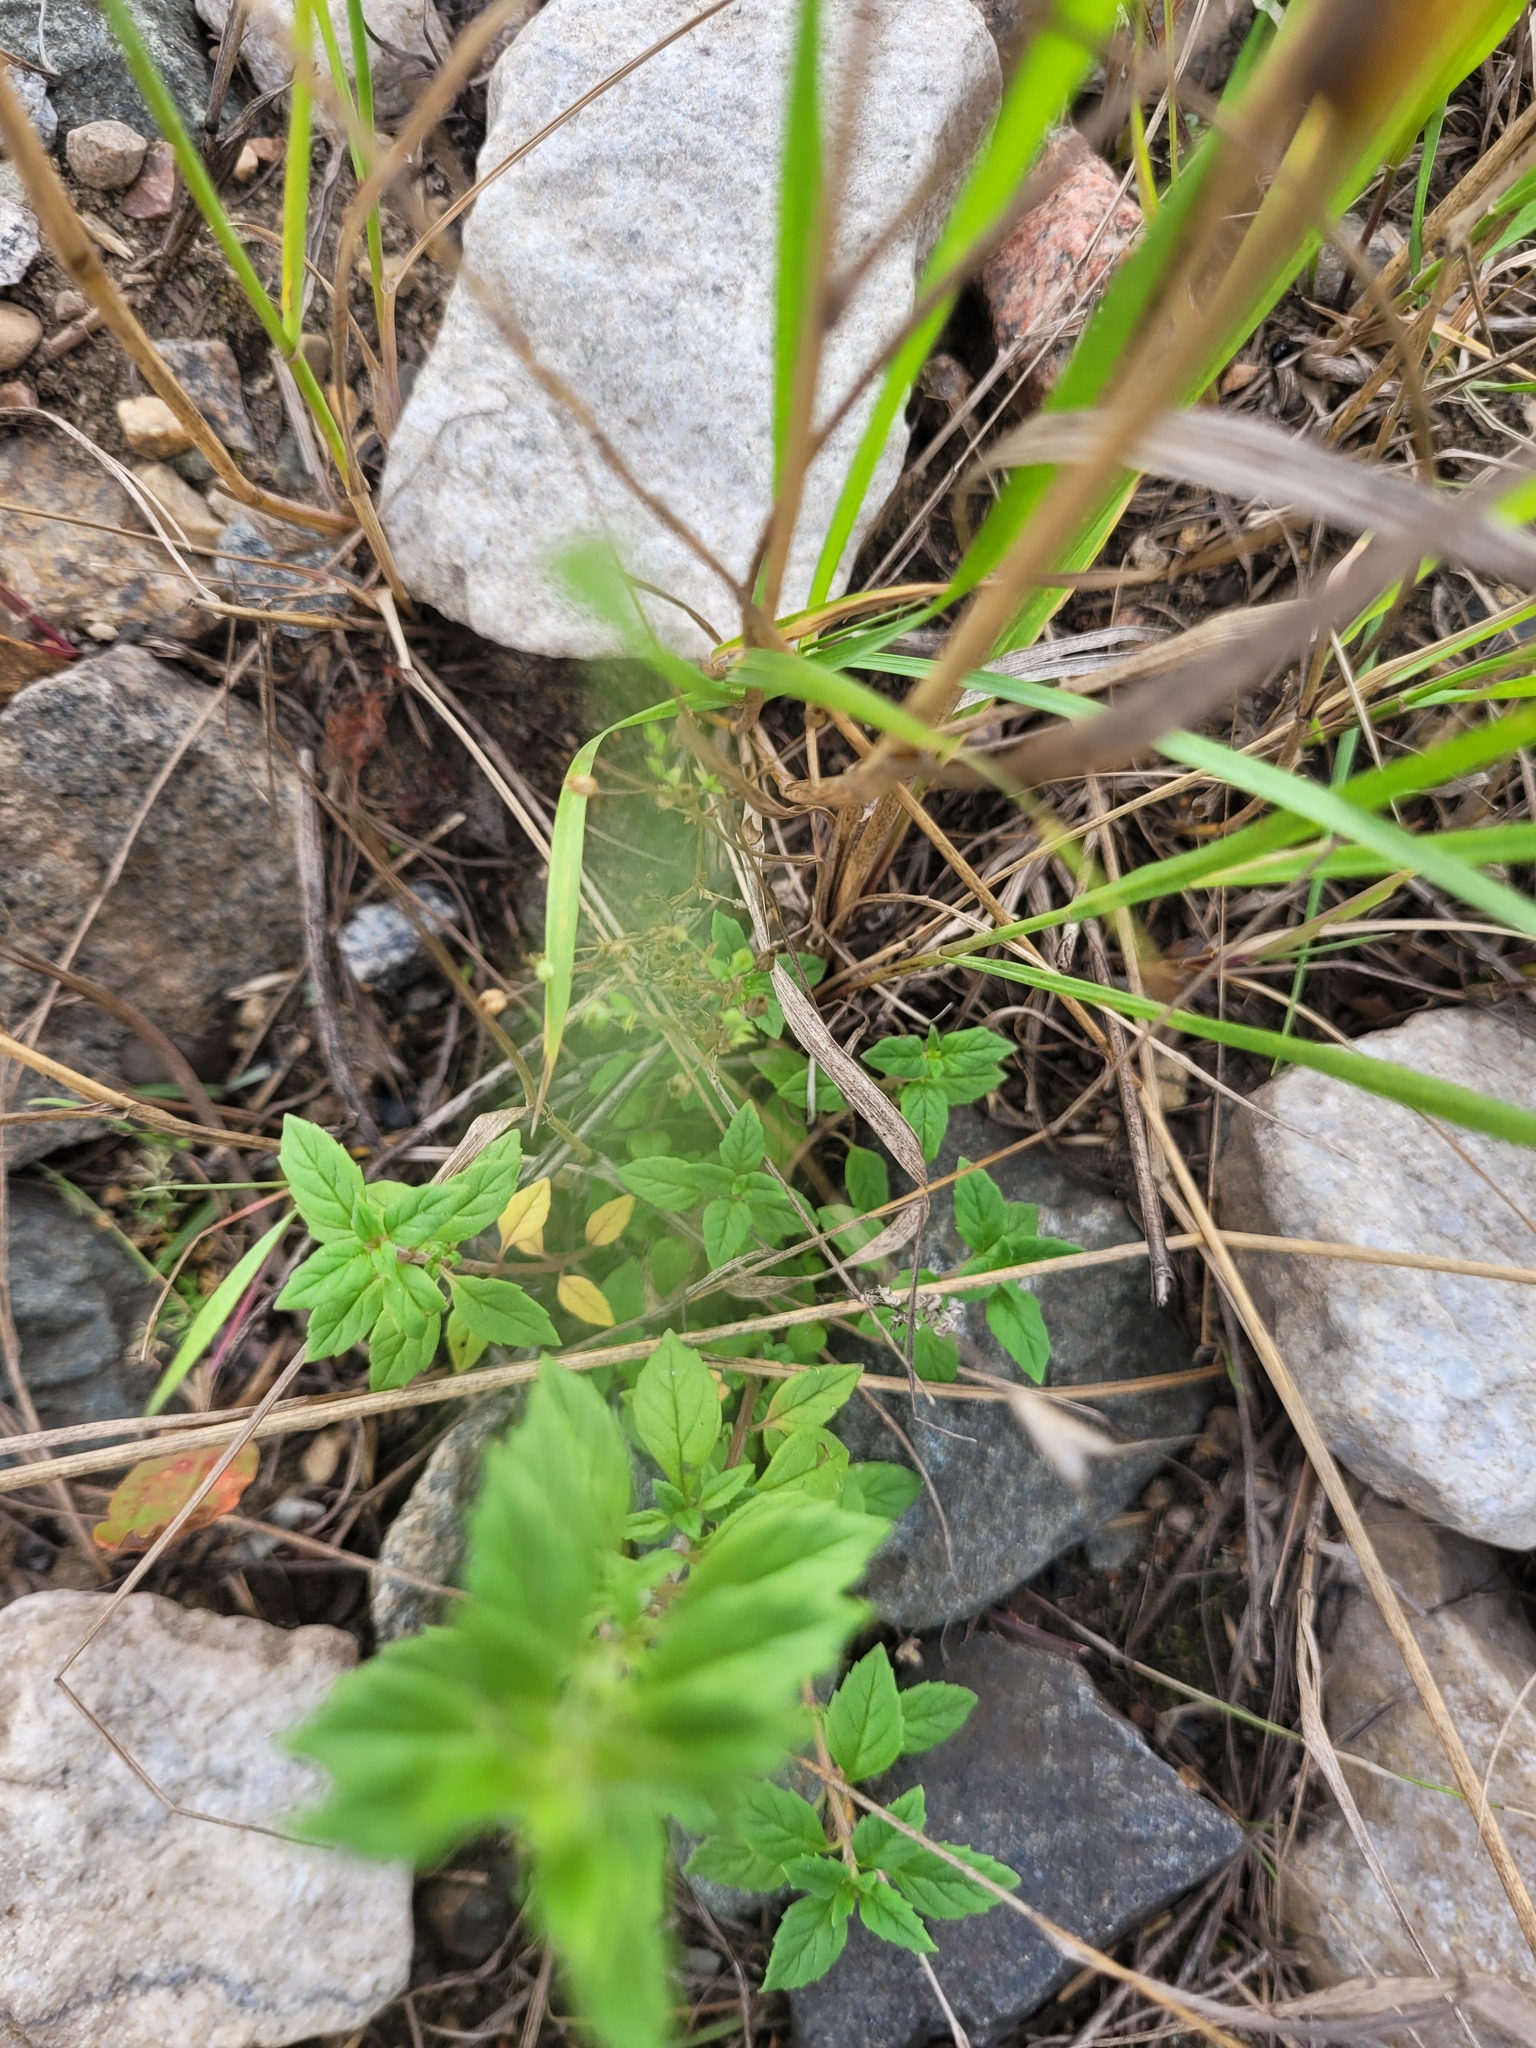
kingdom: Plantae
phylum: Tracheophyta
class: Magnoliopsida
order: Caryophyllales
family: Caryophyllaceae
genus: Arenaria
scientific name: Arenaria serpyllifolia
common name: Thyme-leaved sandwort
